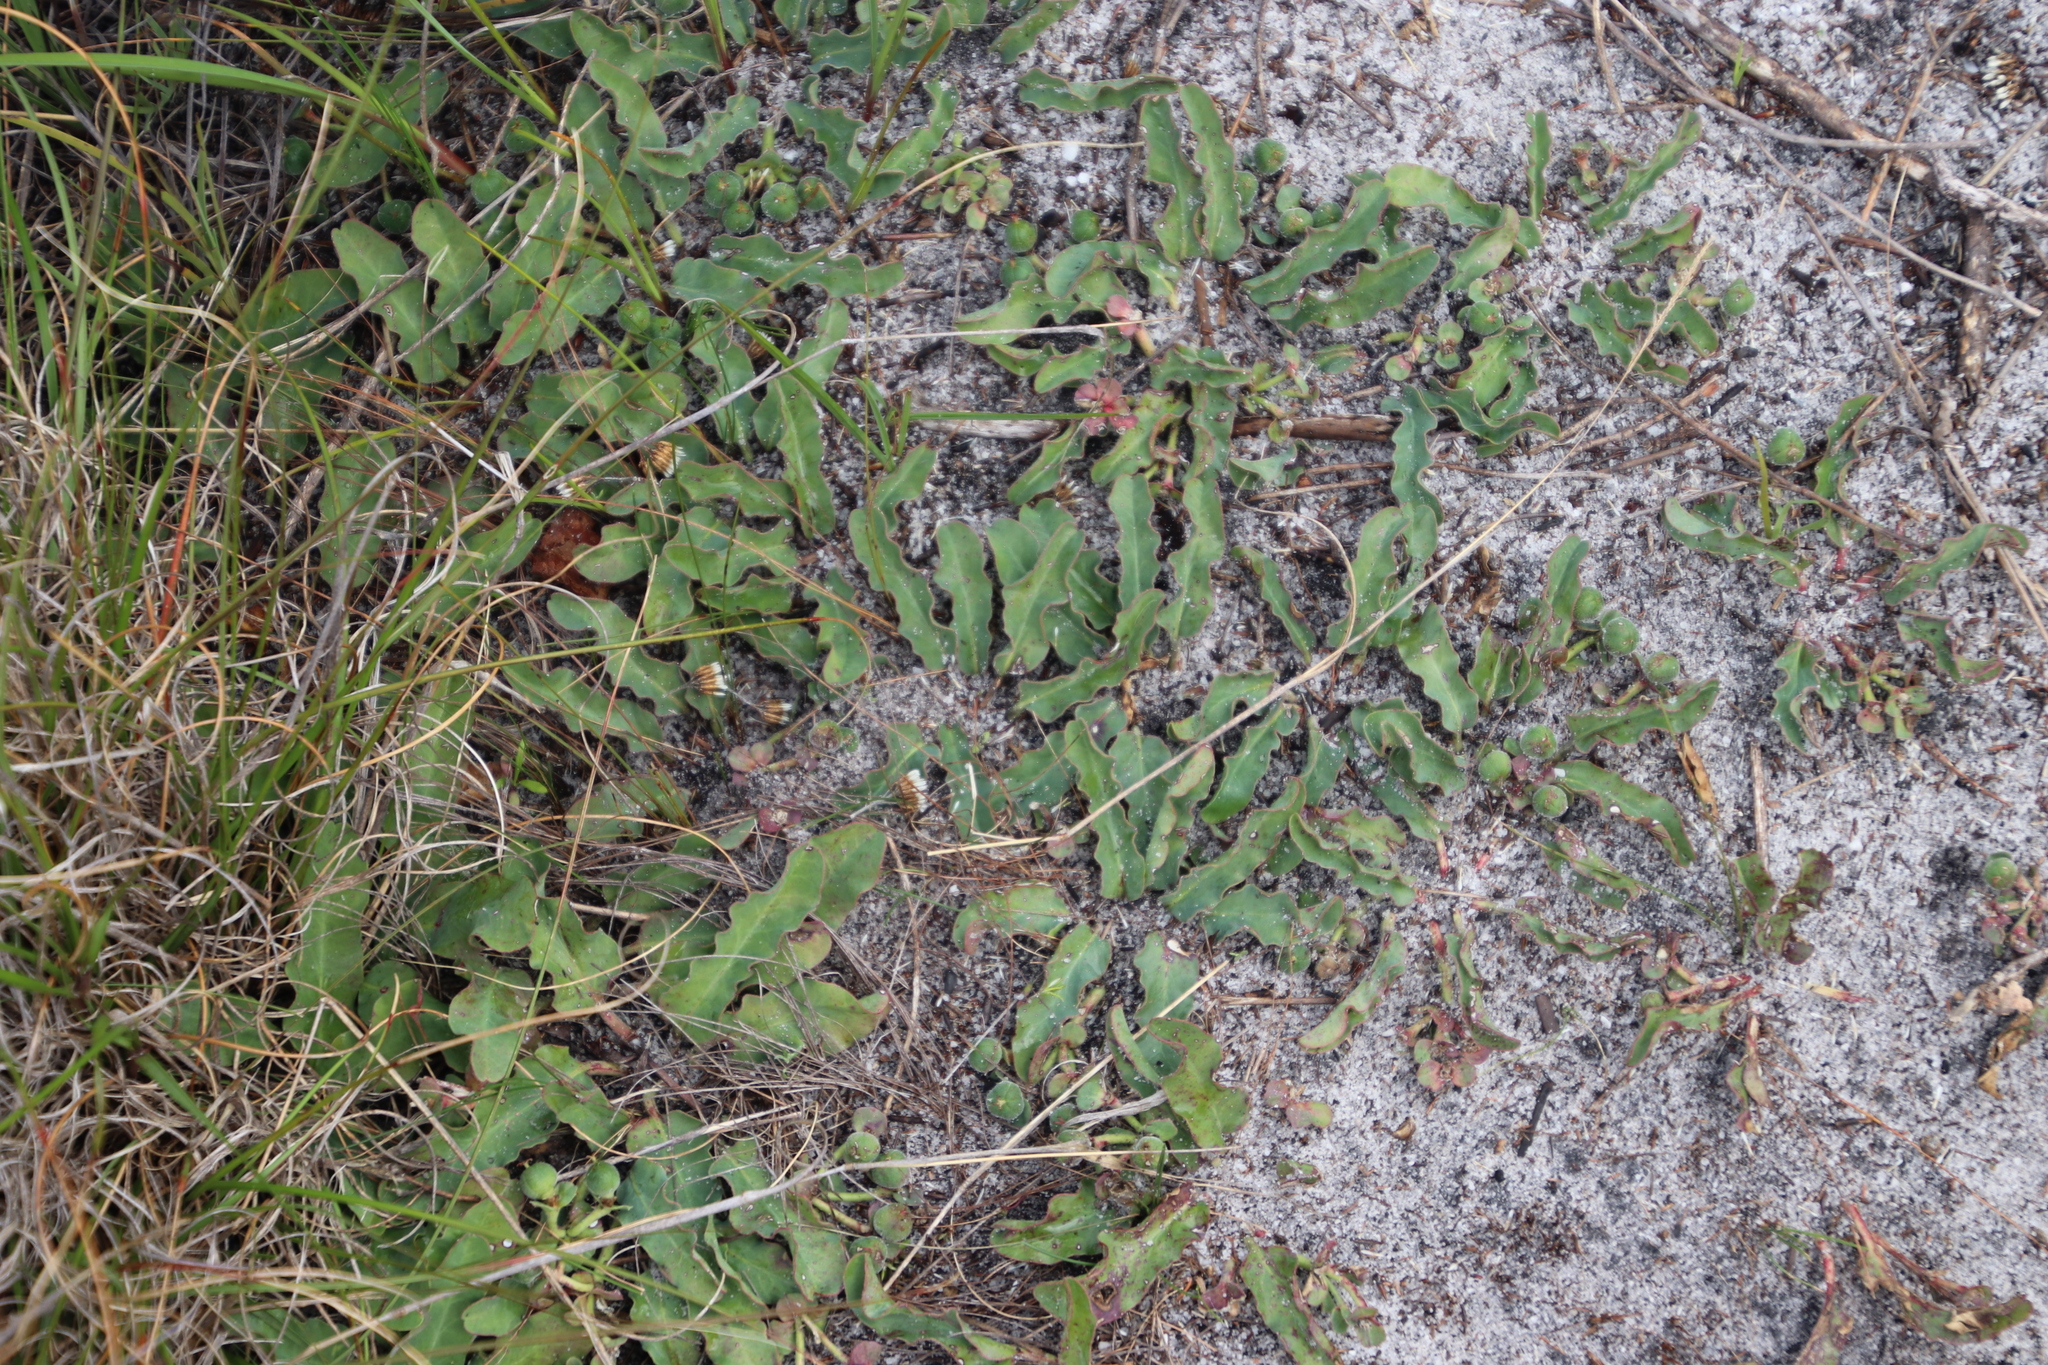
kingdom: Plantae
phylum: Tracheophyta
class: Magnoliopsida
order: Malpighiales
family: Euphorbiaceae
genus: Euphorbia
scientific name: Euphorbia tuberosa
